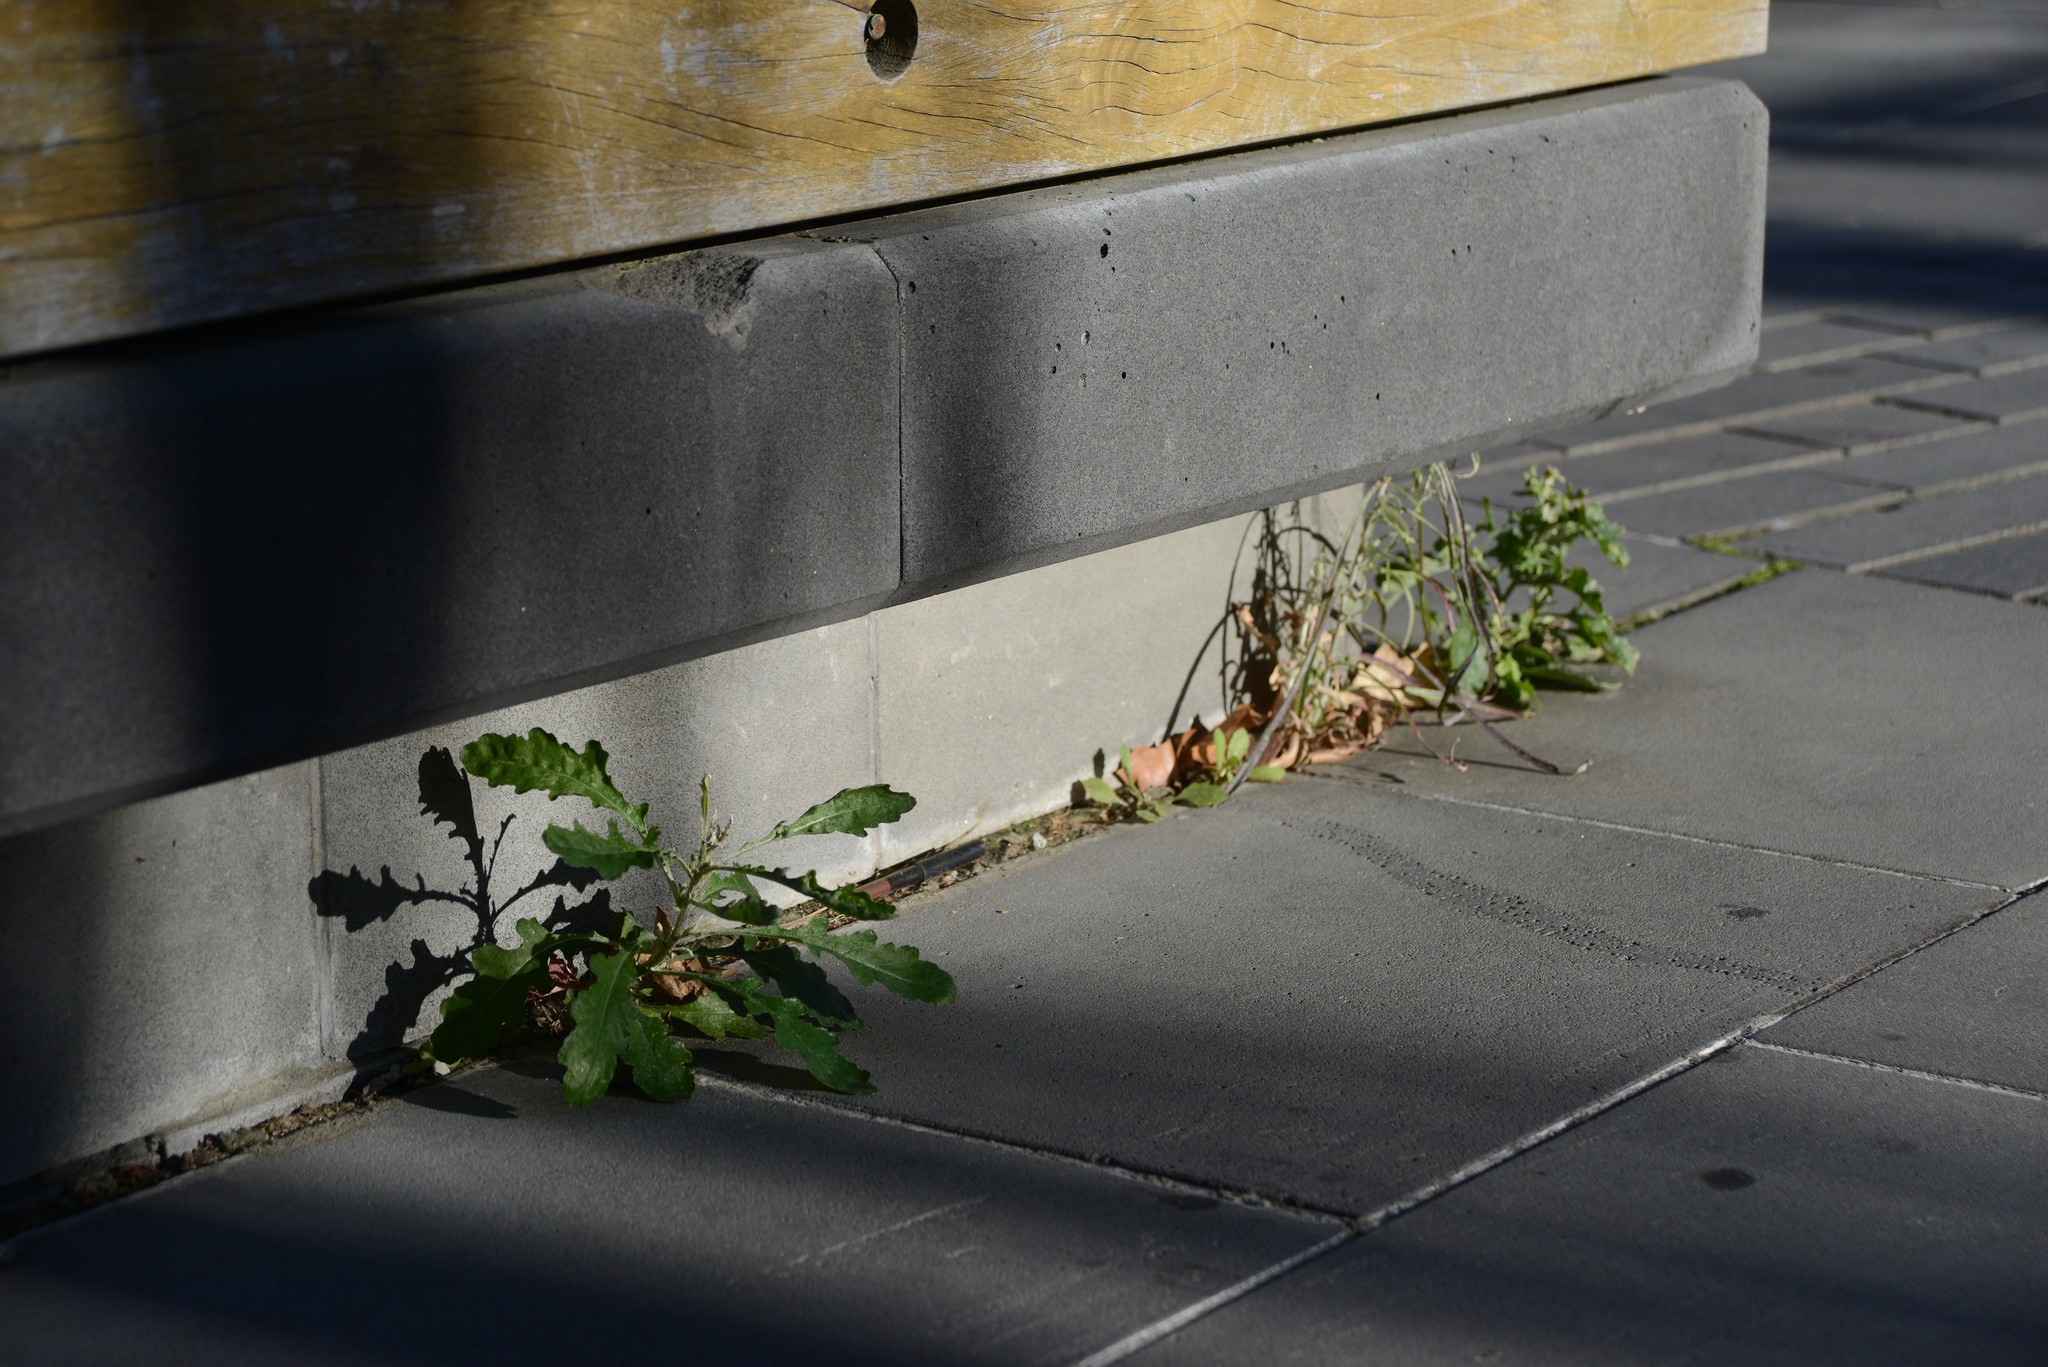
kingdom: Plantae
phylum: Tracheophyta
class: Magnoliopsida
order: Asterales
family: Asteraceae
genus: Senecio
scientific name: Senecio glomeratus
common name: Cutleaf burnweed
